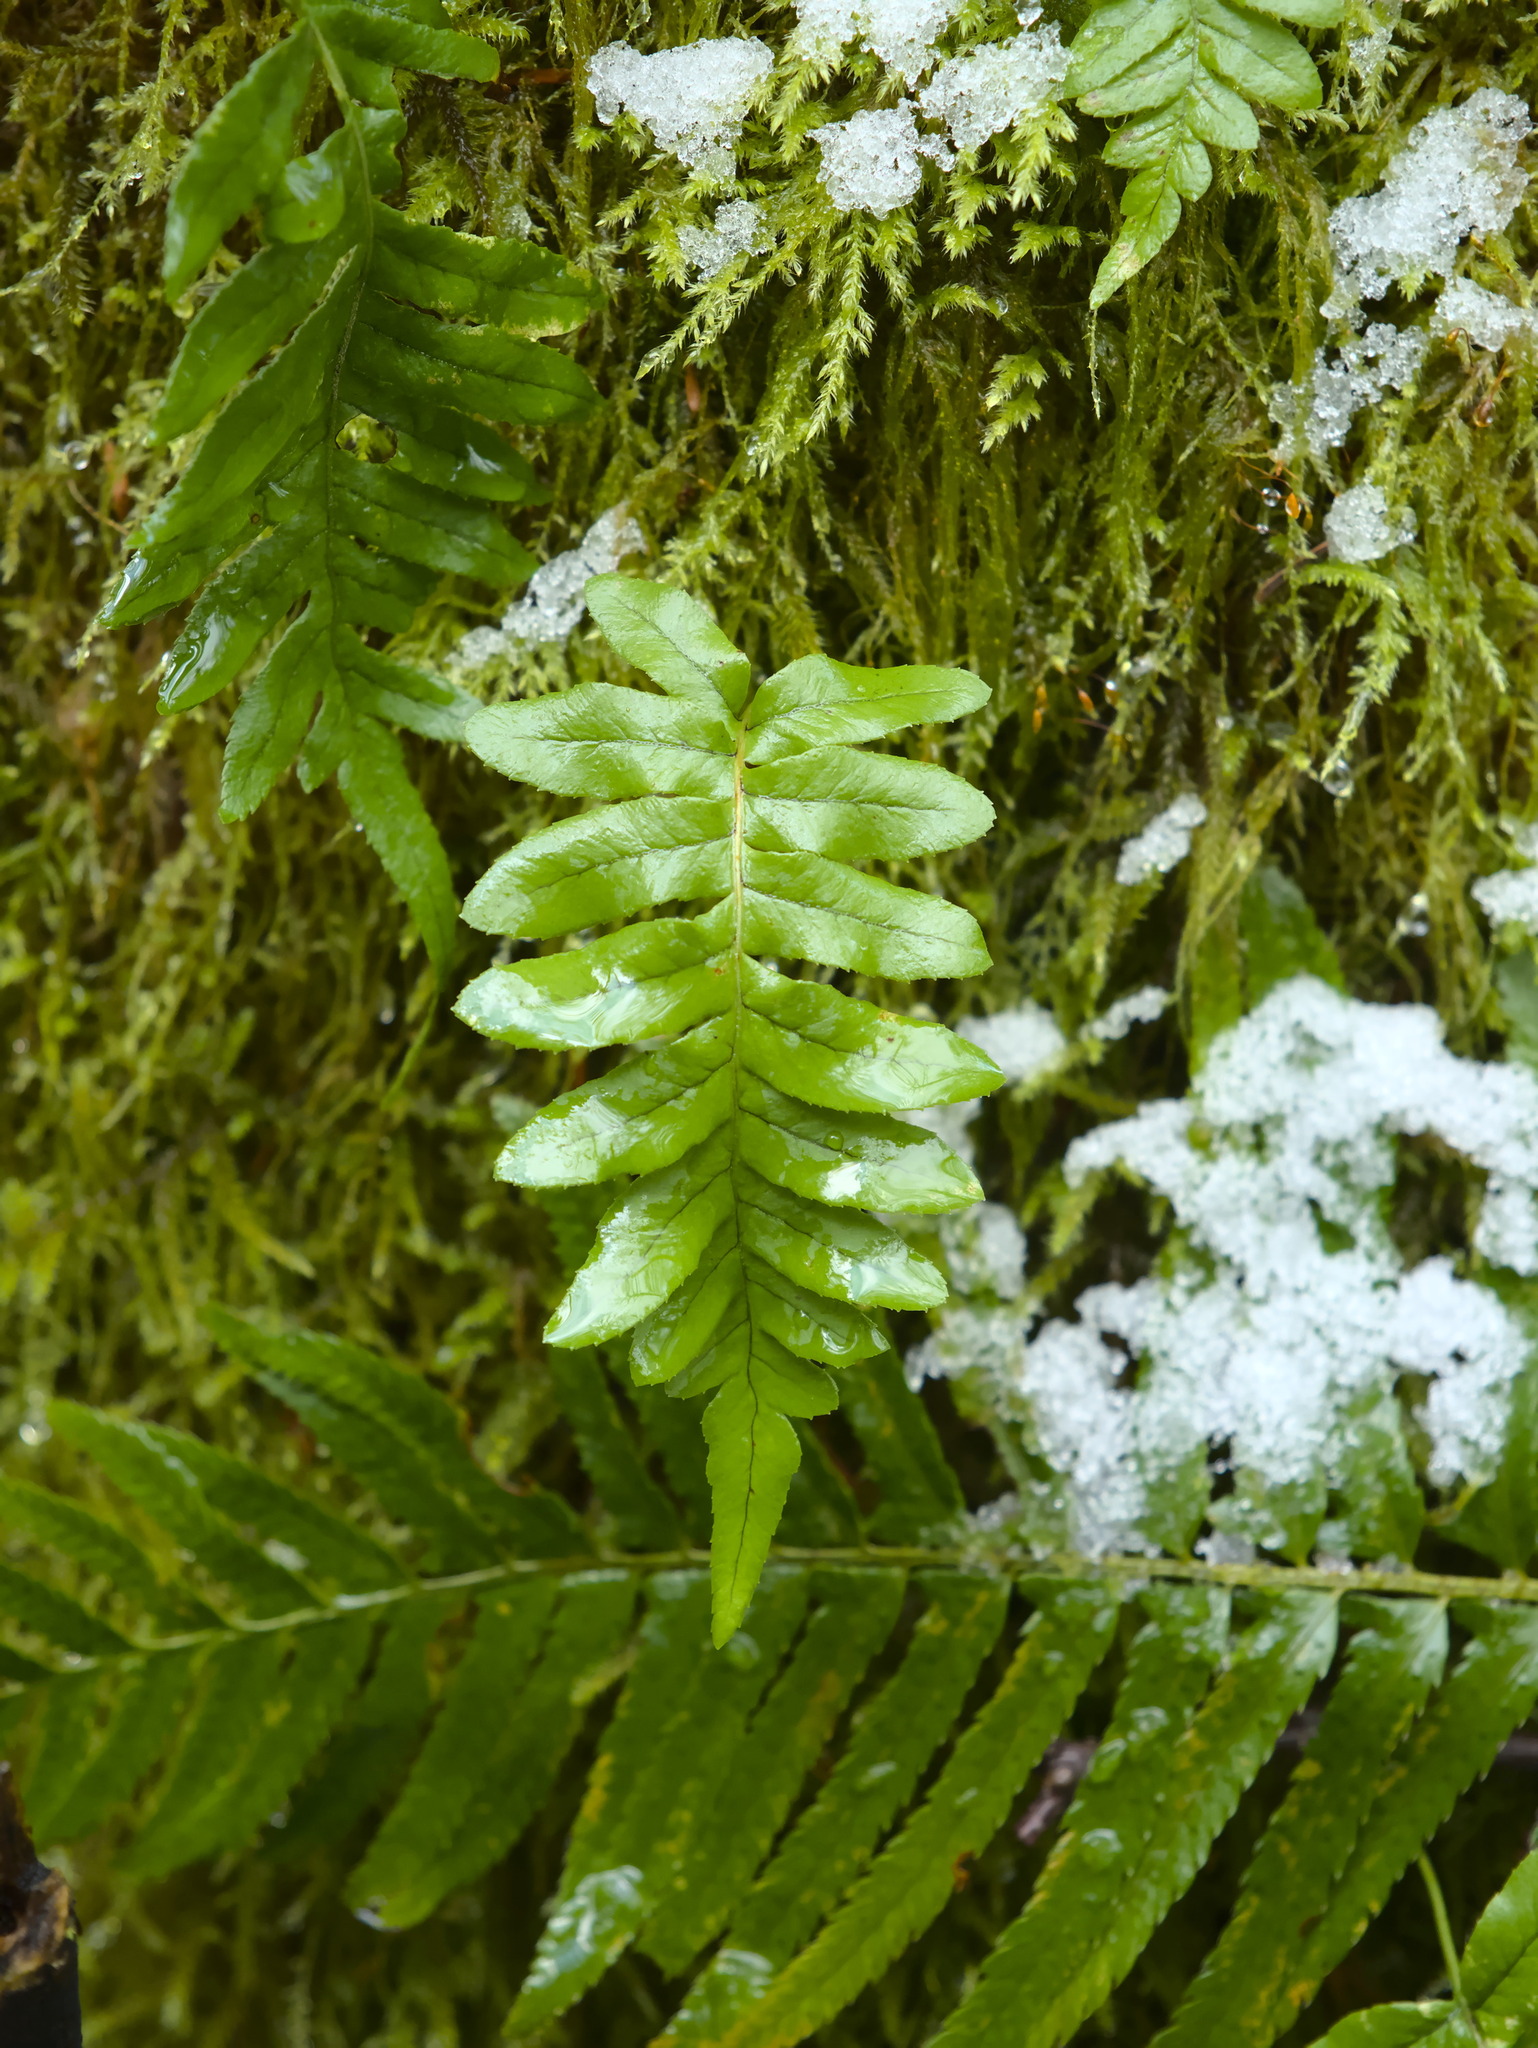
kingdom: Plantae
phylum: Tracheophyta
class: Polypodiopsida
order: Polypodiales
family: Polypodiaceae
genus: Polypodium
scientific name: Polypodium glycyrrhiza
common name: Licorice fern
